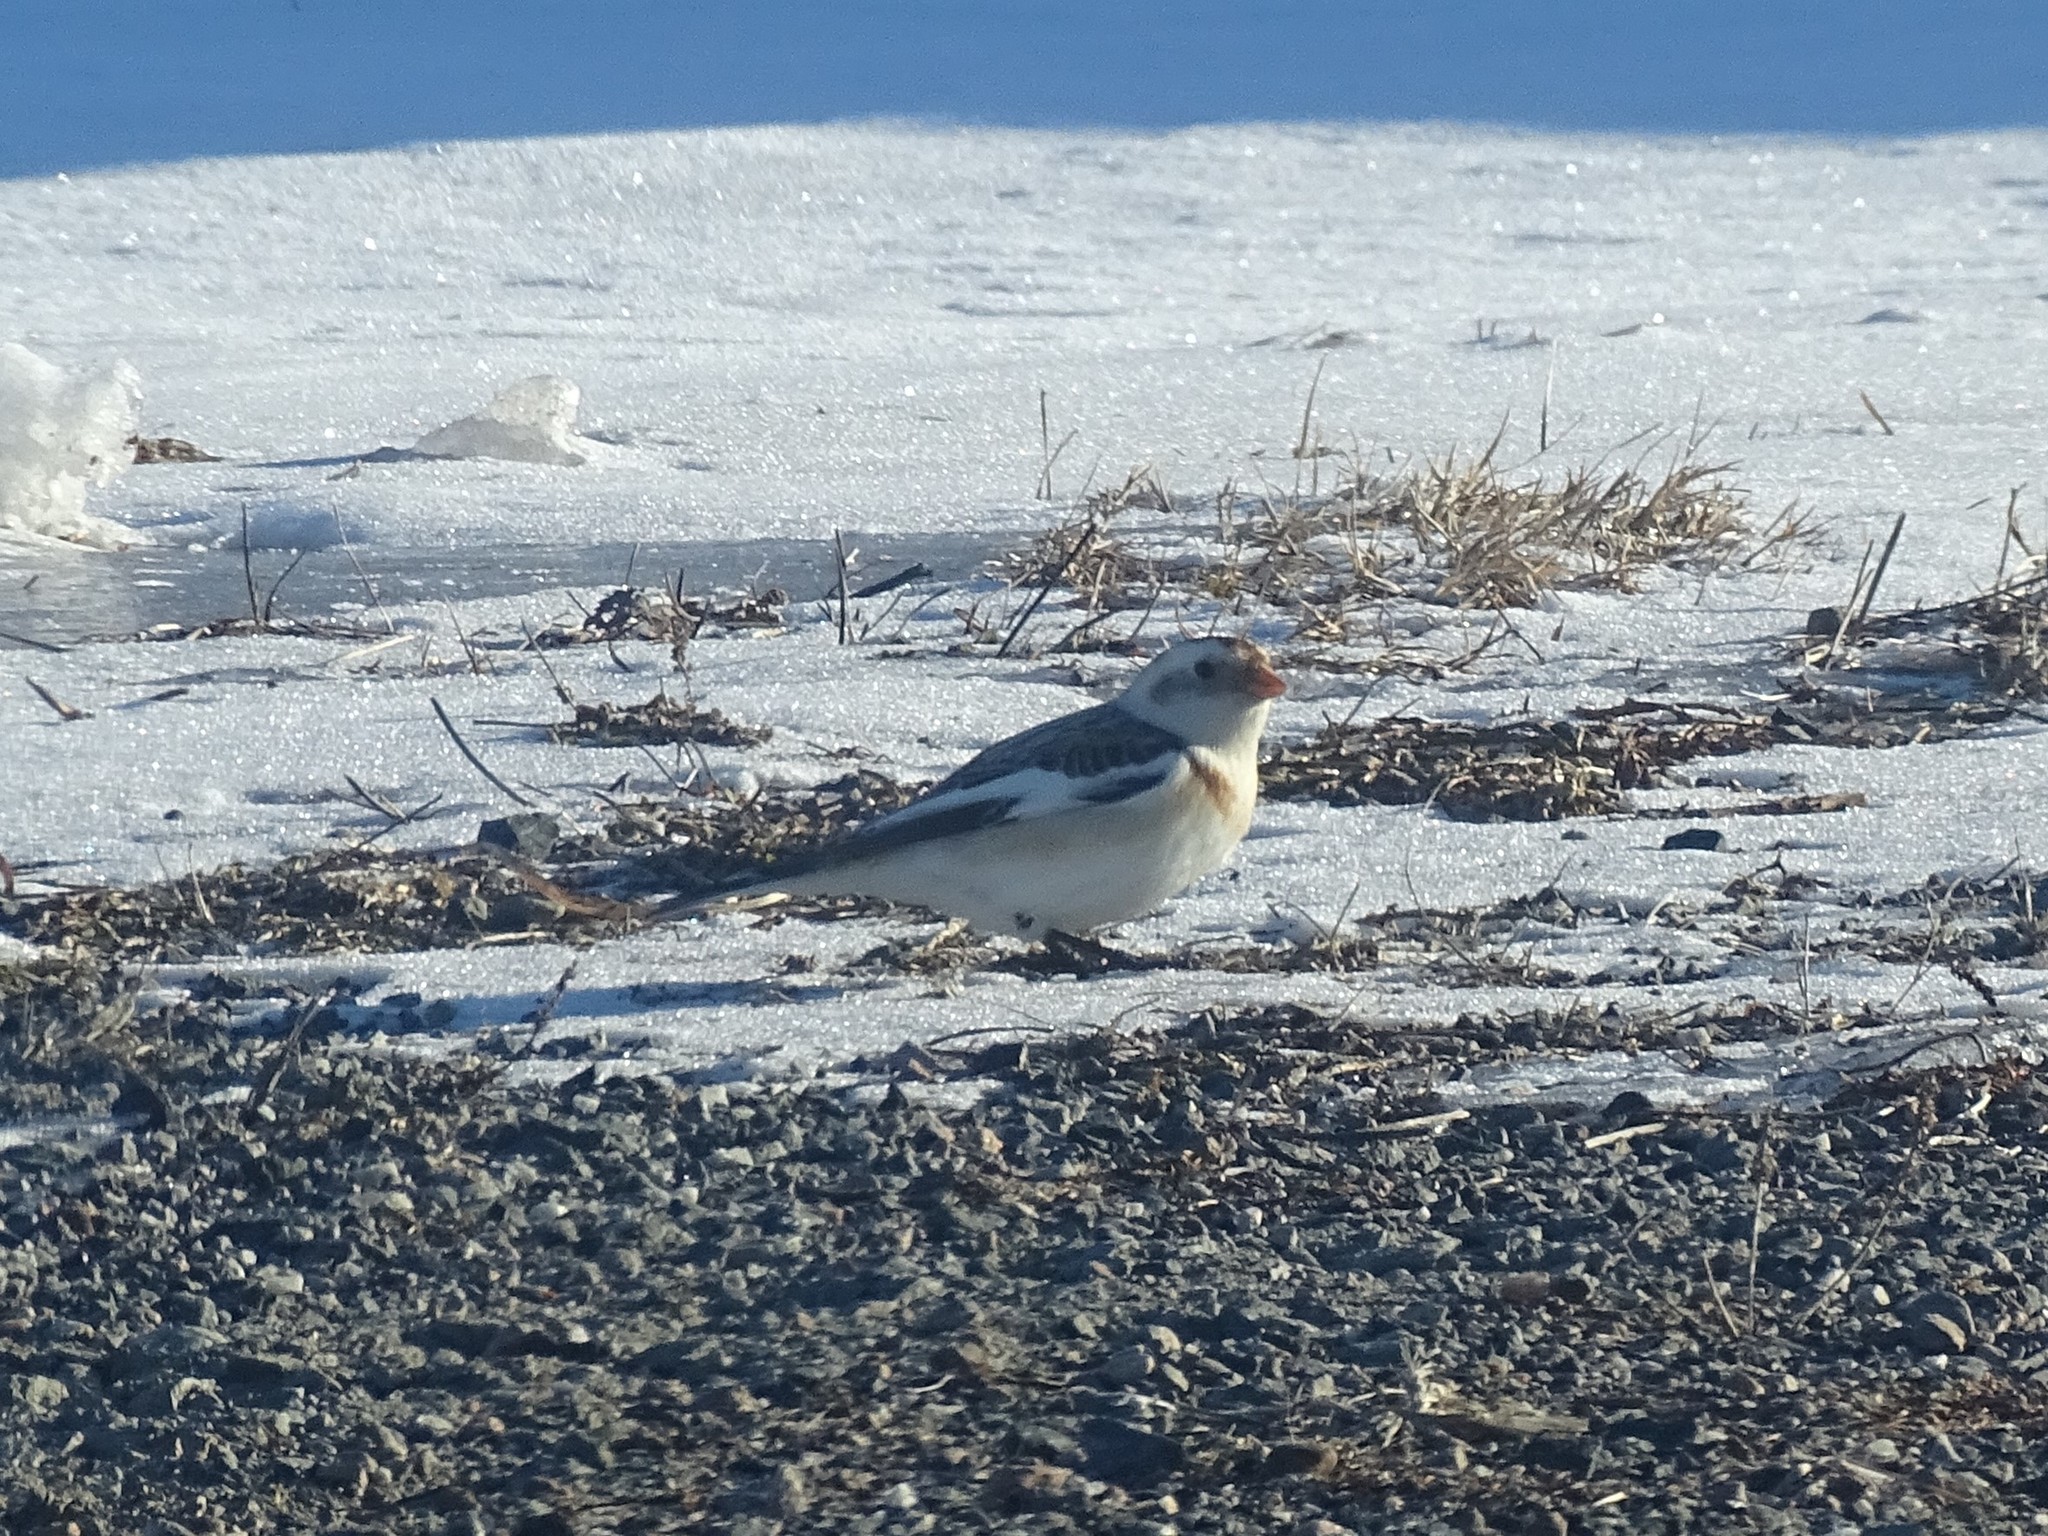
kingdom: Animalia
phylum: Chordata
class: Aves
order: Passeriformes
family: Calcariidae
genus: Plectrophenax
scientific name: Plectrophenax nivalis
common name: Snow bunting
